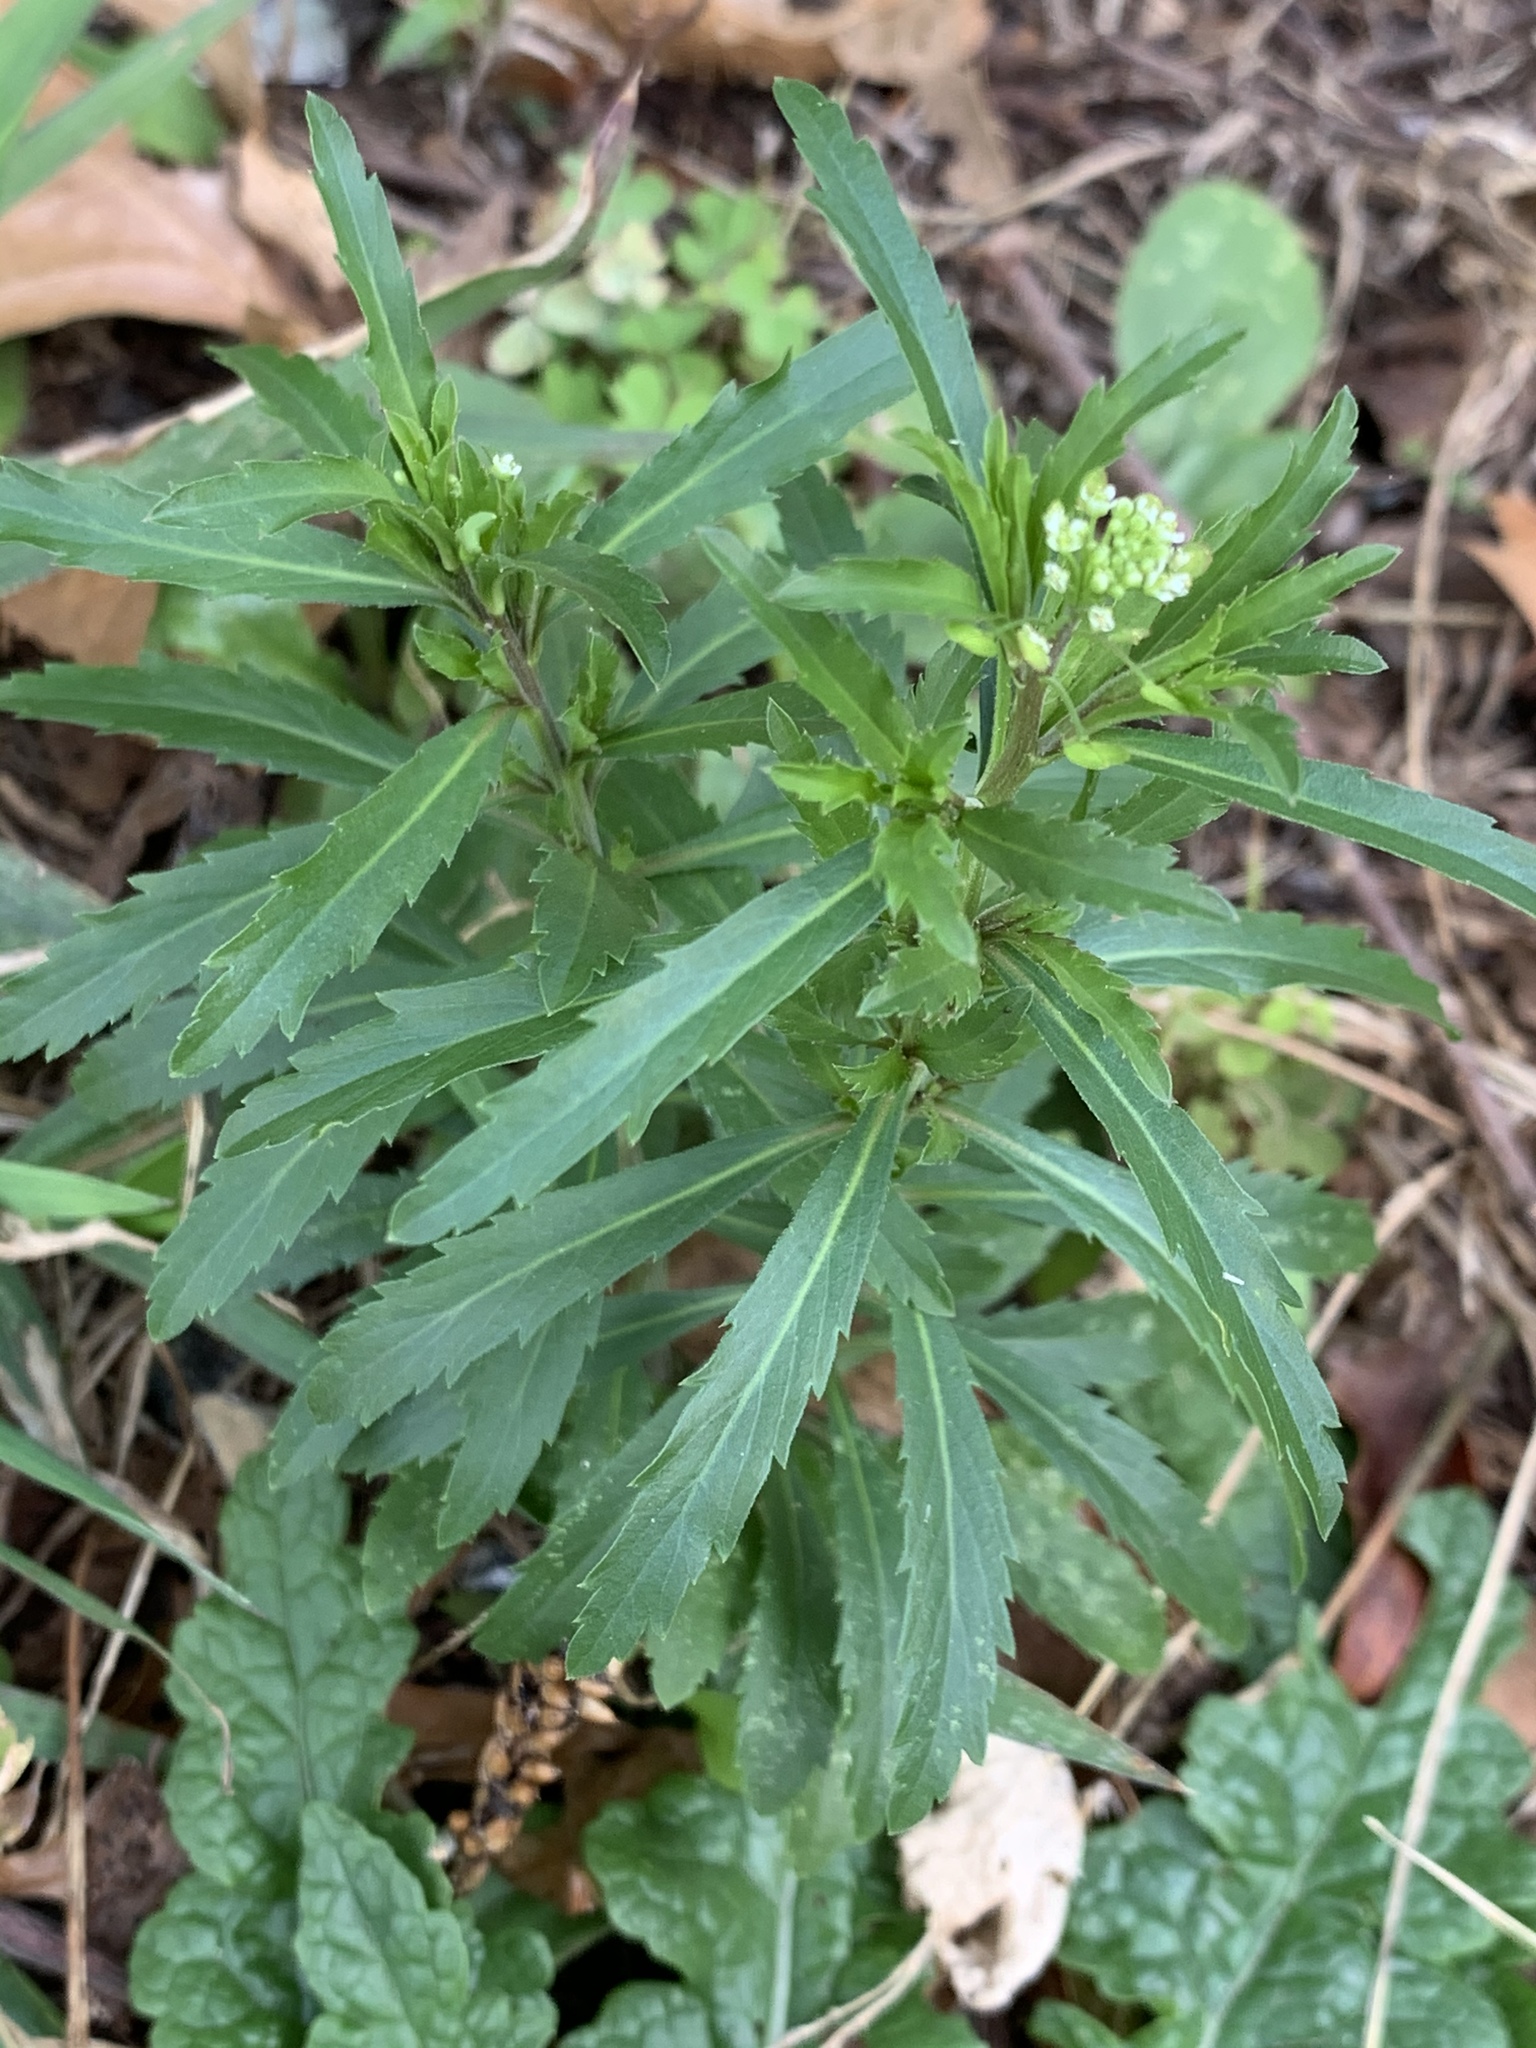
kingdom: Plantae
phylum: Tracheophyta
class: Magnoliopsida
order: Brassicales
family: Brassicaceae
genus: Lepidium
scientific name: Lepidium virginicum
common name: Least pepperwort
